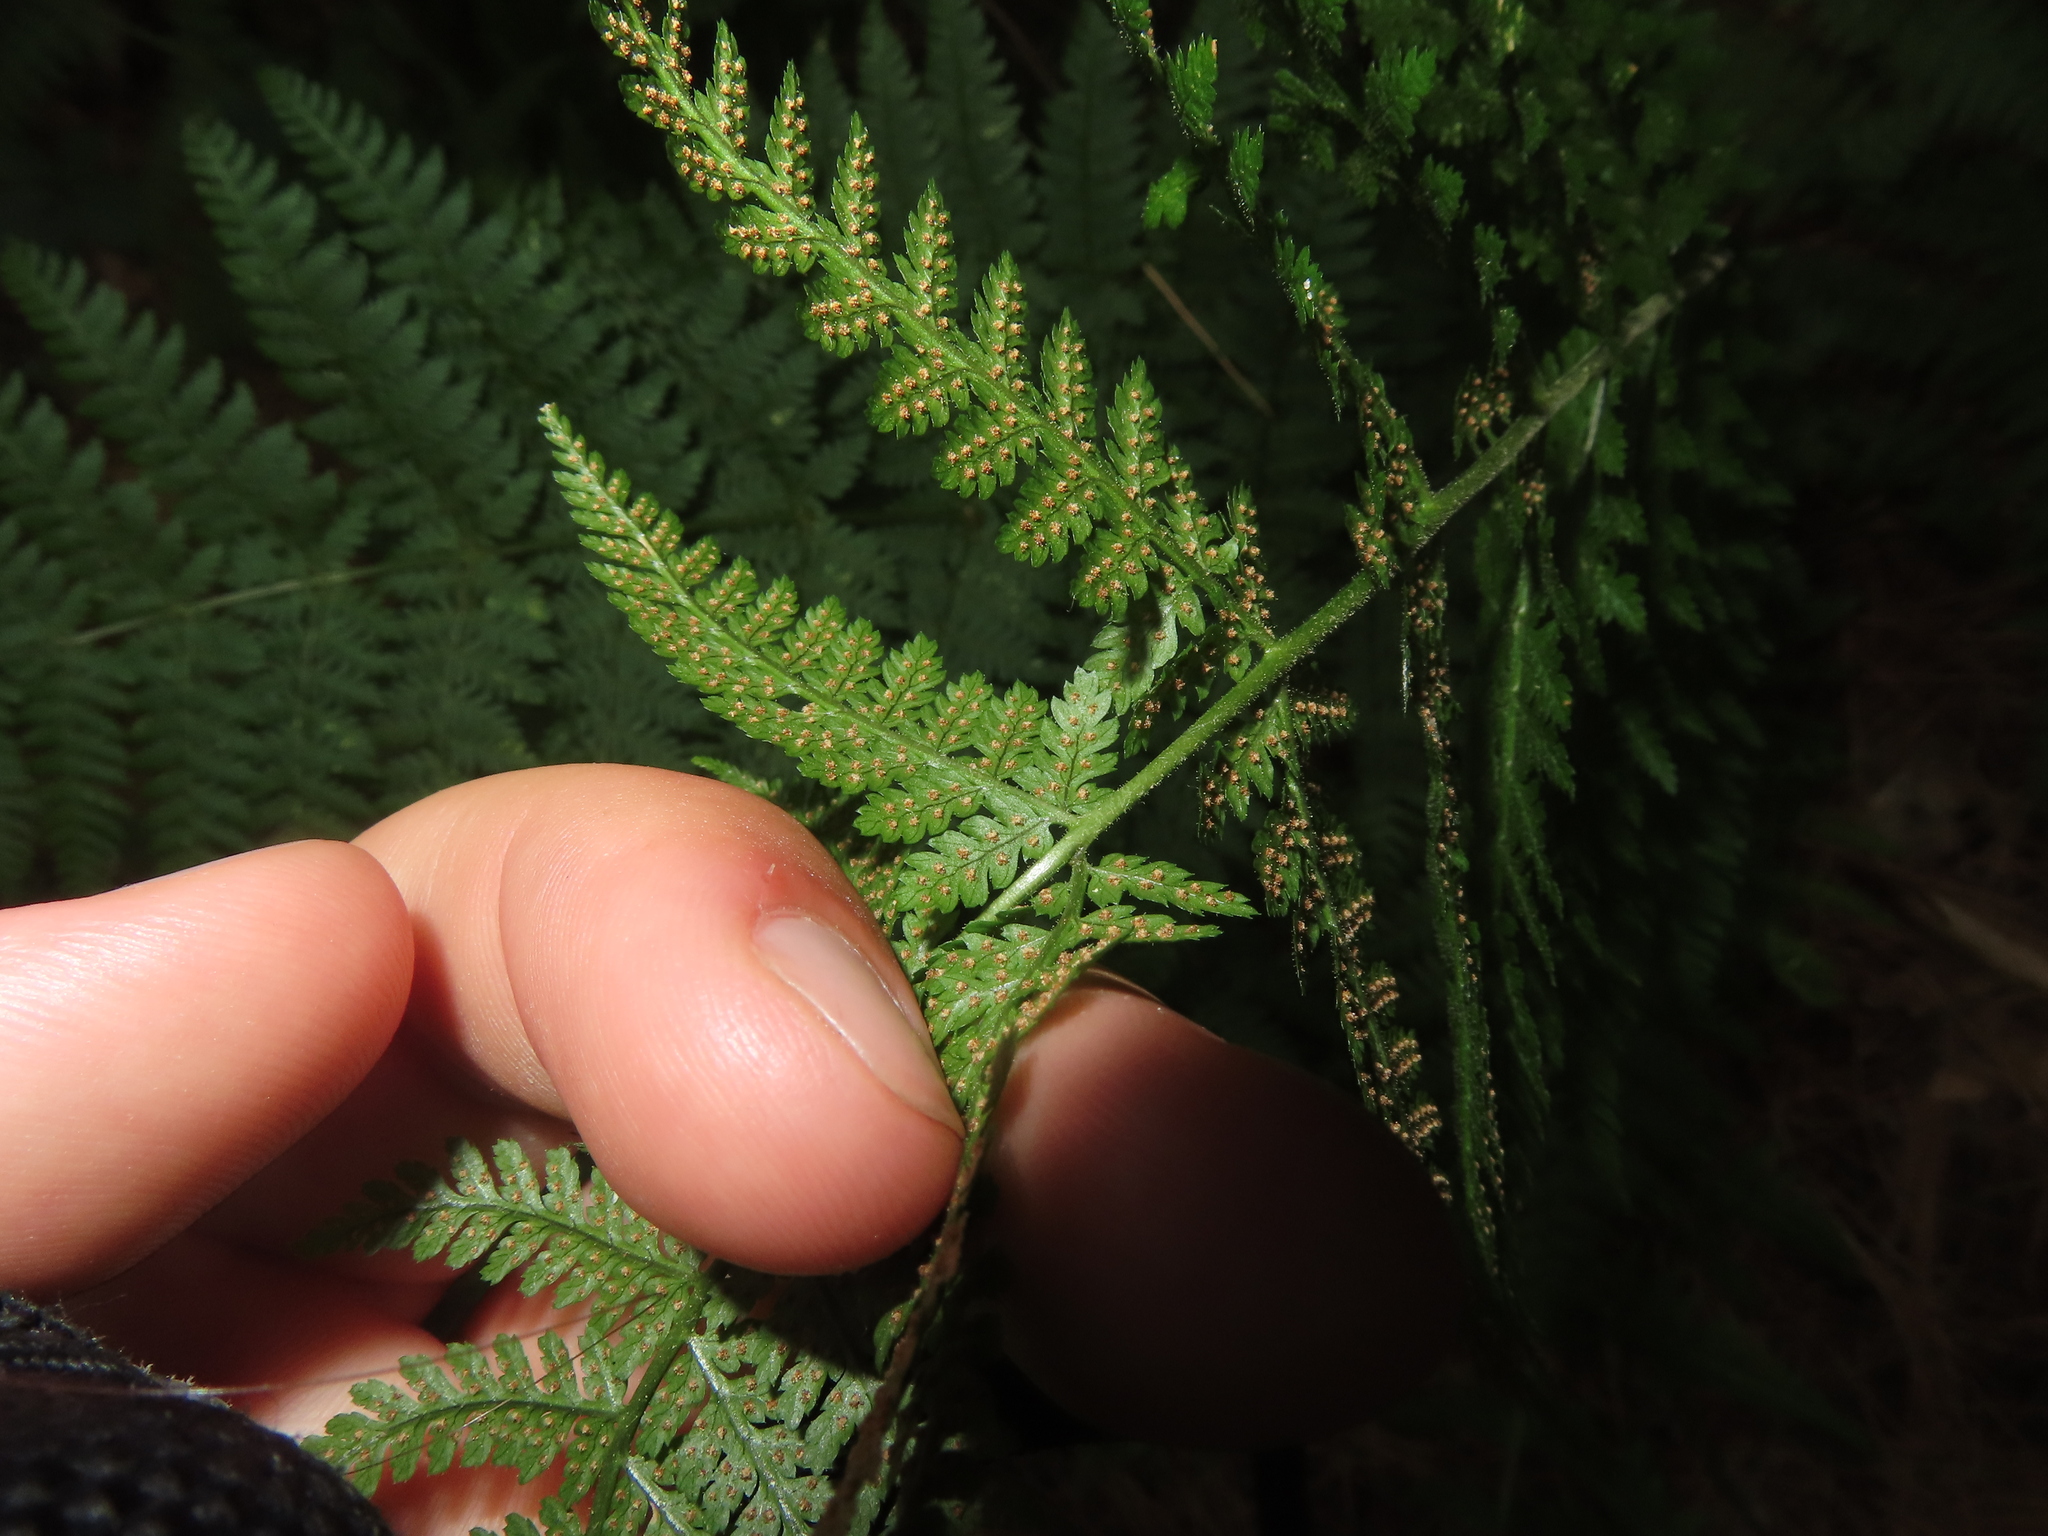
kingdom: Plantae
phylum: Tracheophyta
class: Polypodiopsida
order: Polypodiales
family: Dryopteridaceae
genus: Dryopteris
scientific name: Dryopteris intermedia
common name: Evergreen wood fern
